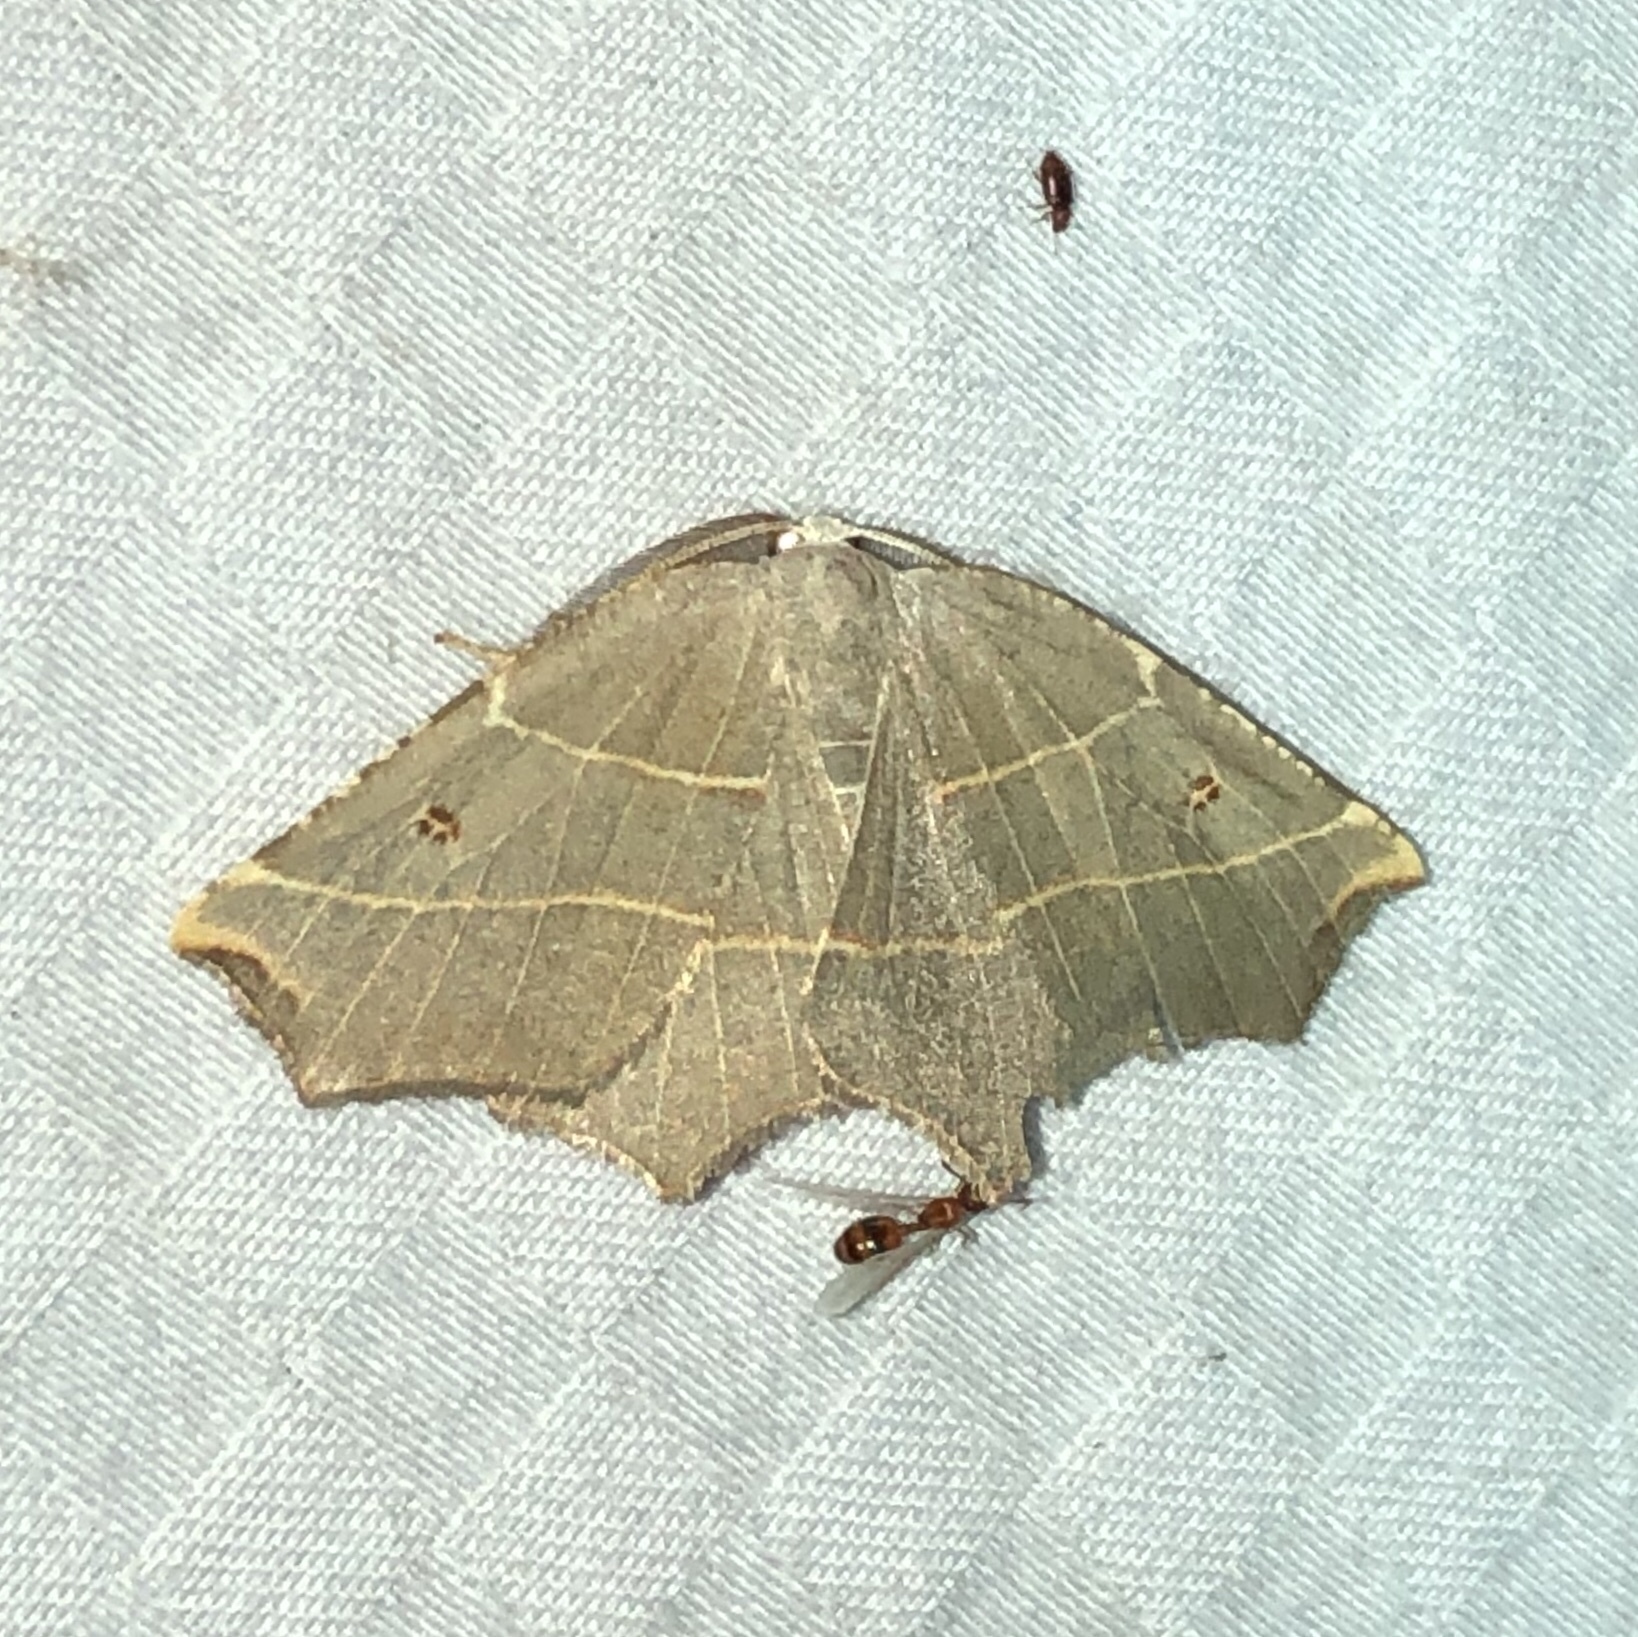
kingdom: Animalia
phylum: Arthropoda
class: Insecta
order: Lepidoptera
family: Geometridae
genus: Metanema
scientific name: Metanema inatomaria
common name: Pale metanema
